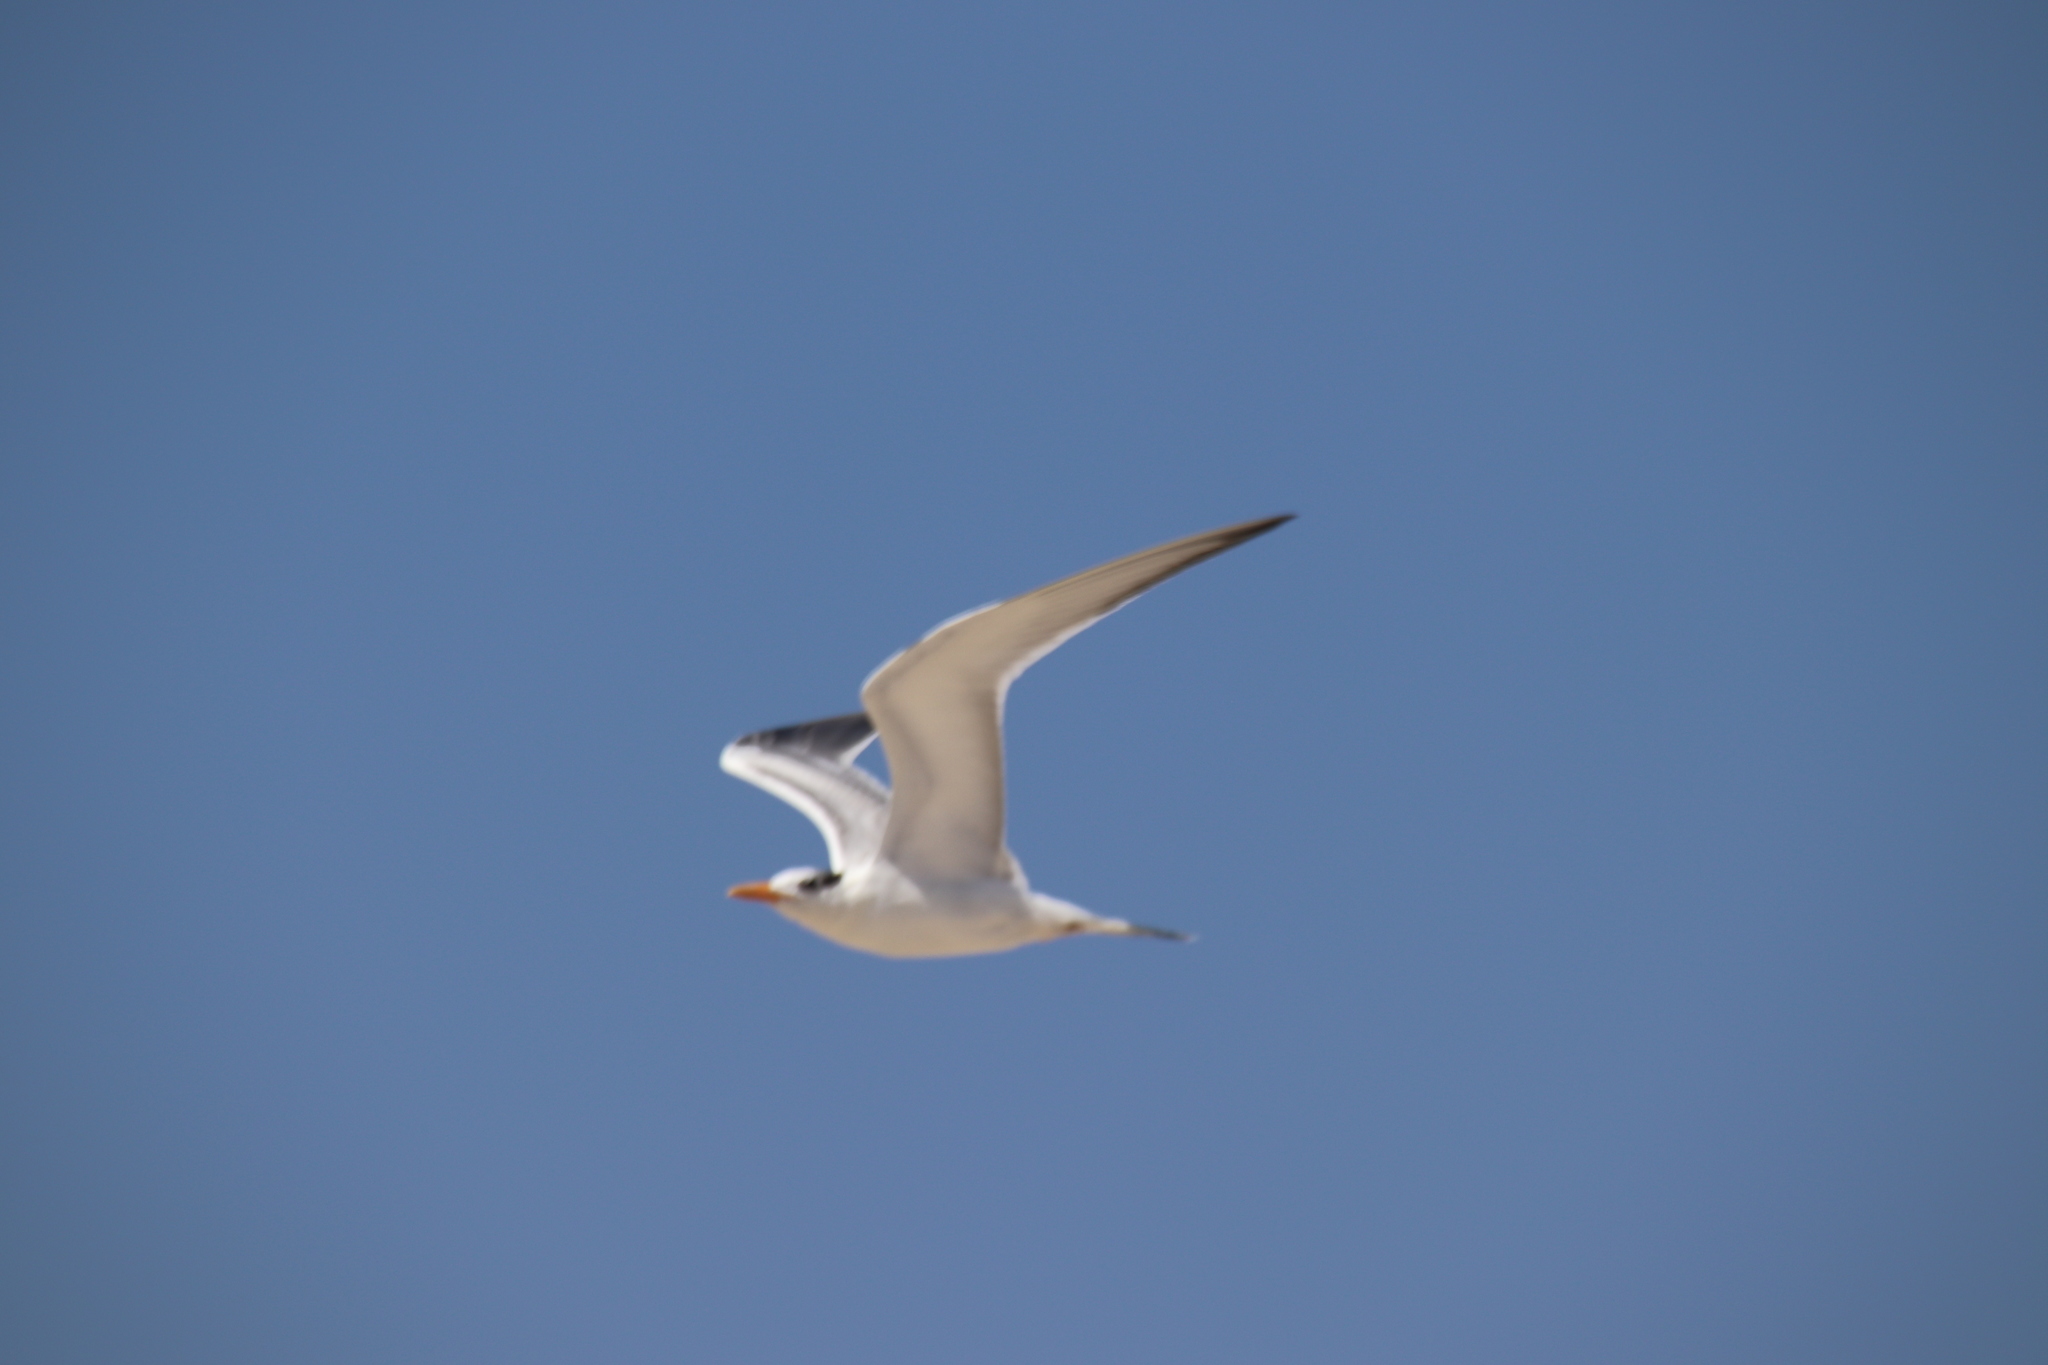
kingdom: Animalia
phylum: Chordata
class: Aves
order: Charadriiformes
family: Laridae
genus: Thalasseus
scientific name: Thalasseus maximus
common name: Royal tern
